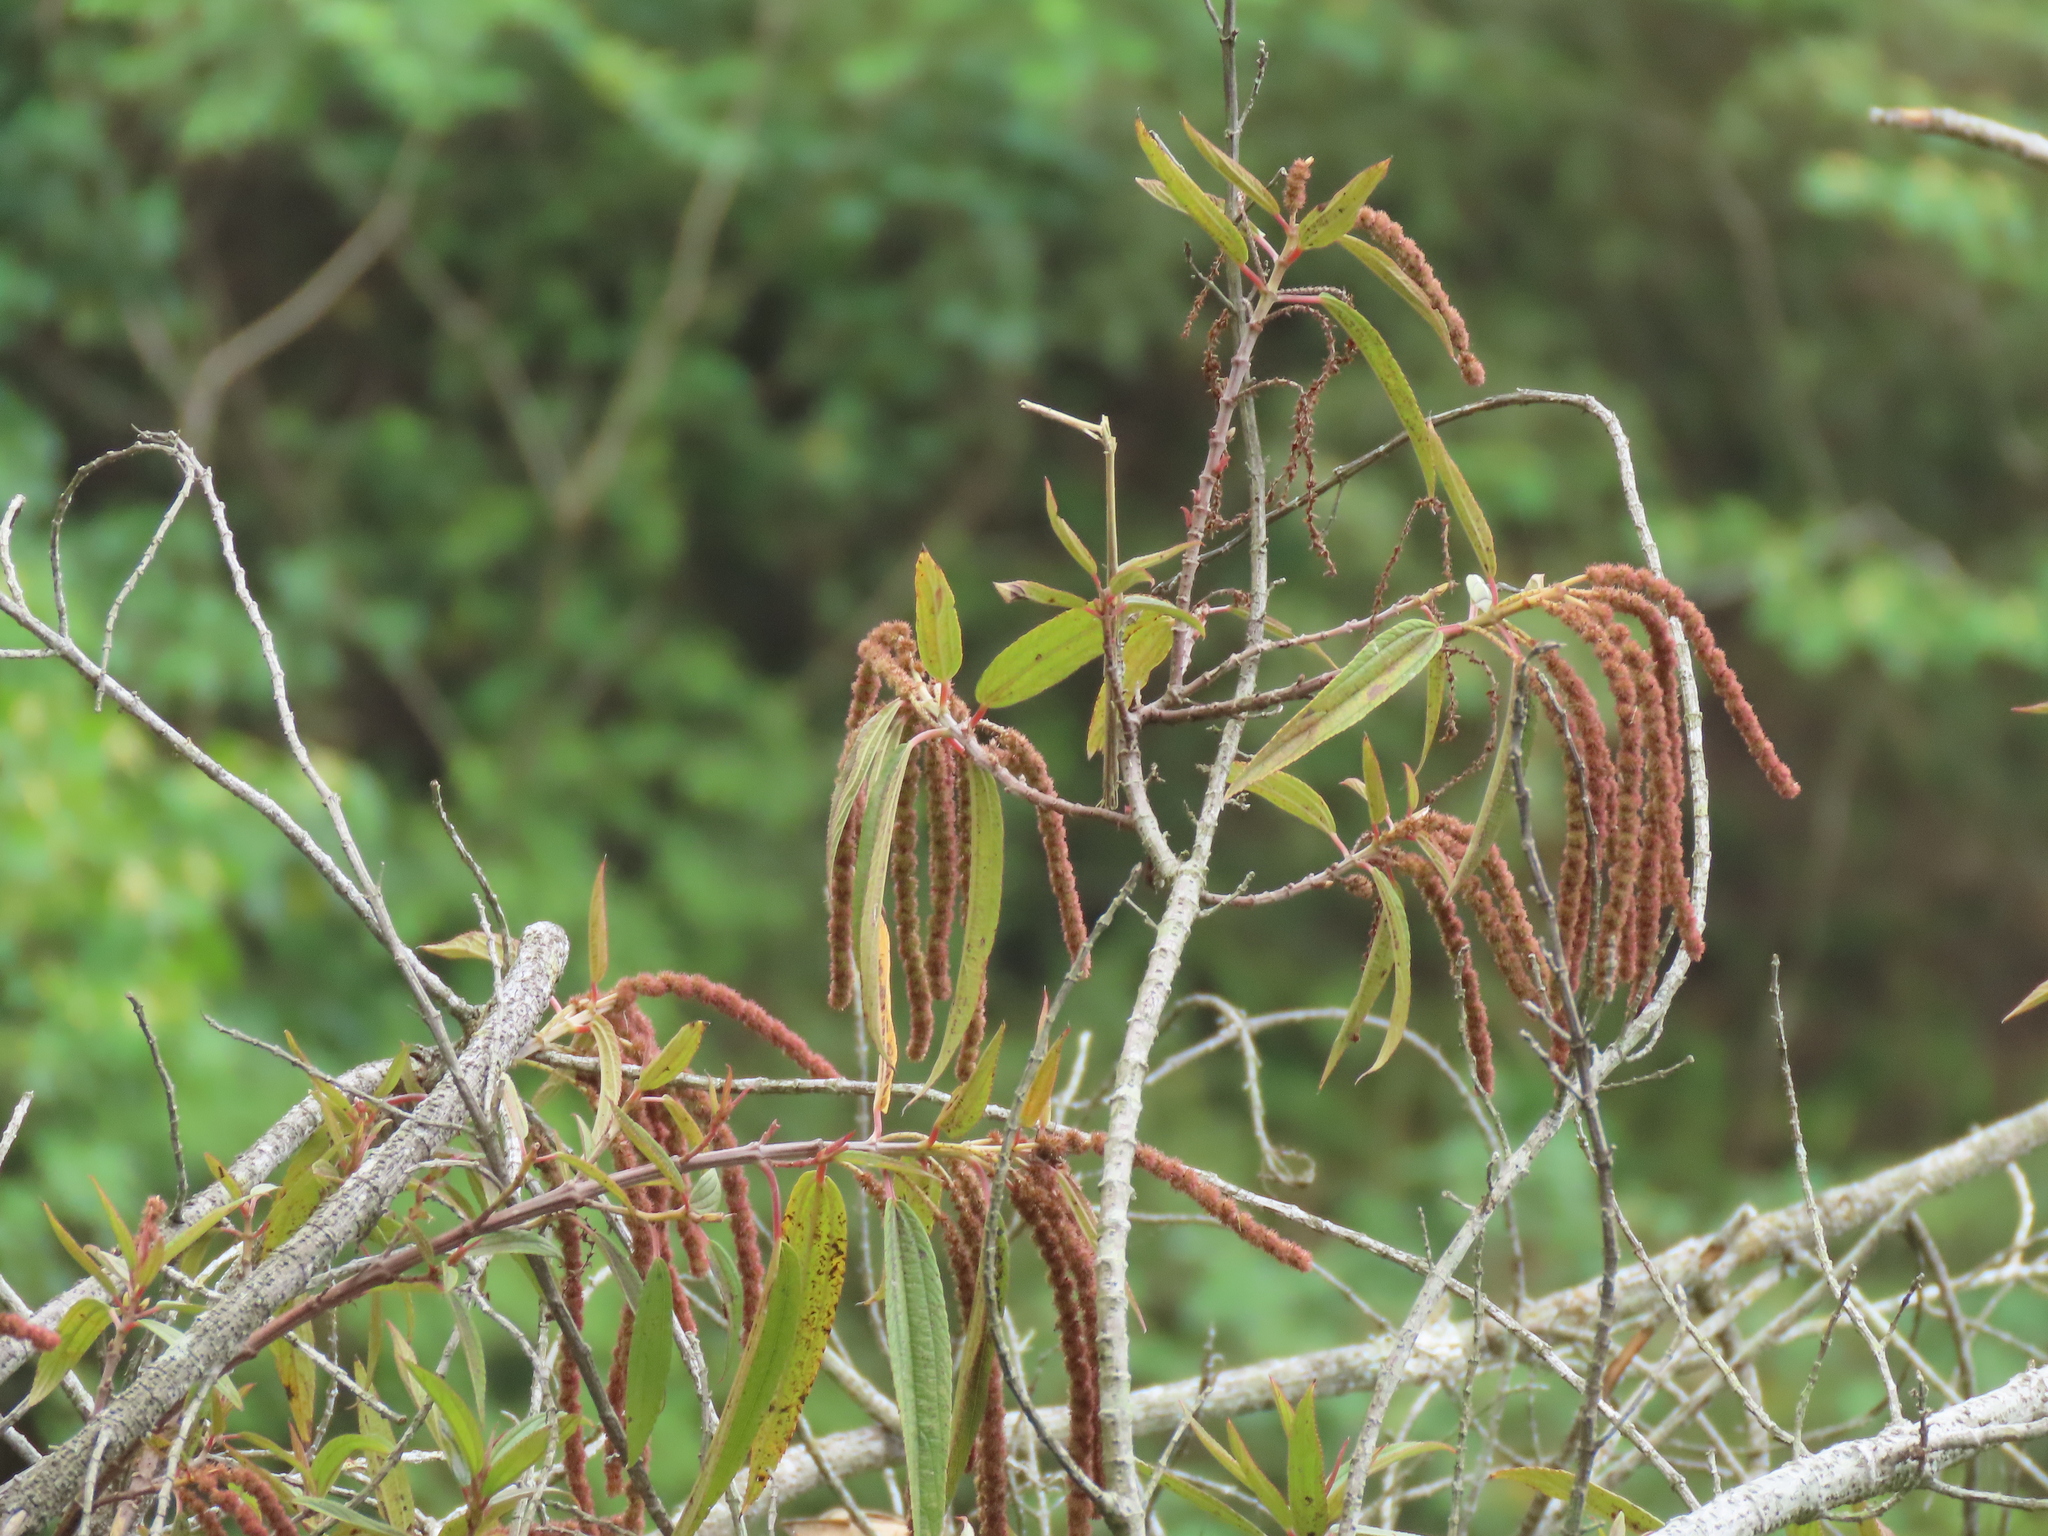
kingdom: Plantae
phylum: Tracheophyta
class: Magnoliopsida
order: Rosales
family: Urticaceae
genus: Boehmeria
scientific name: Boehmeria densiflora
